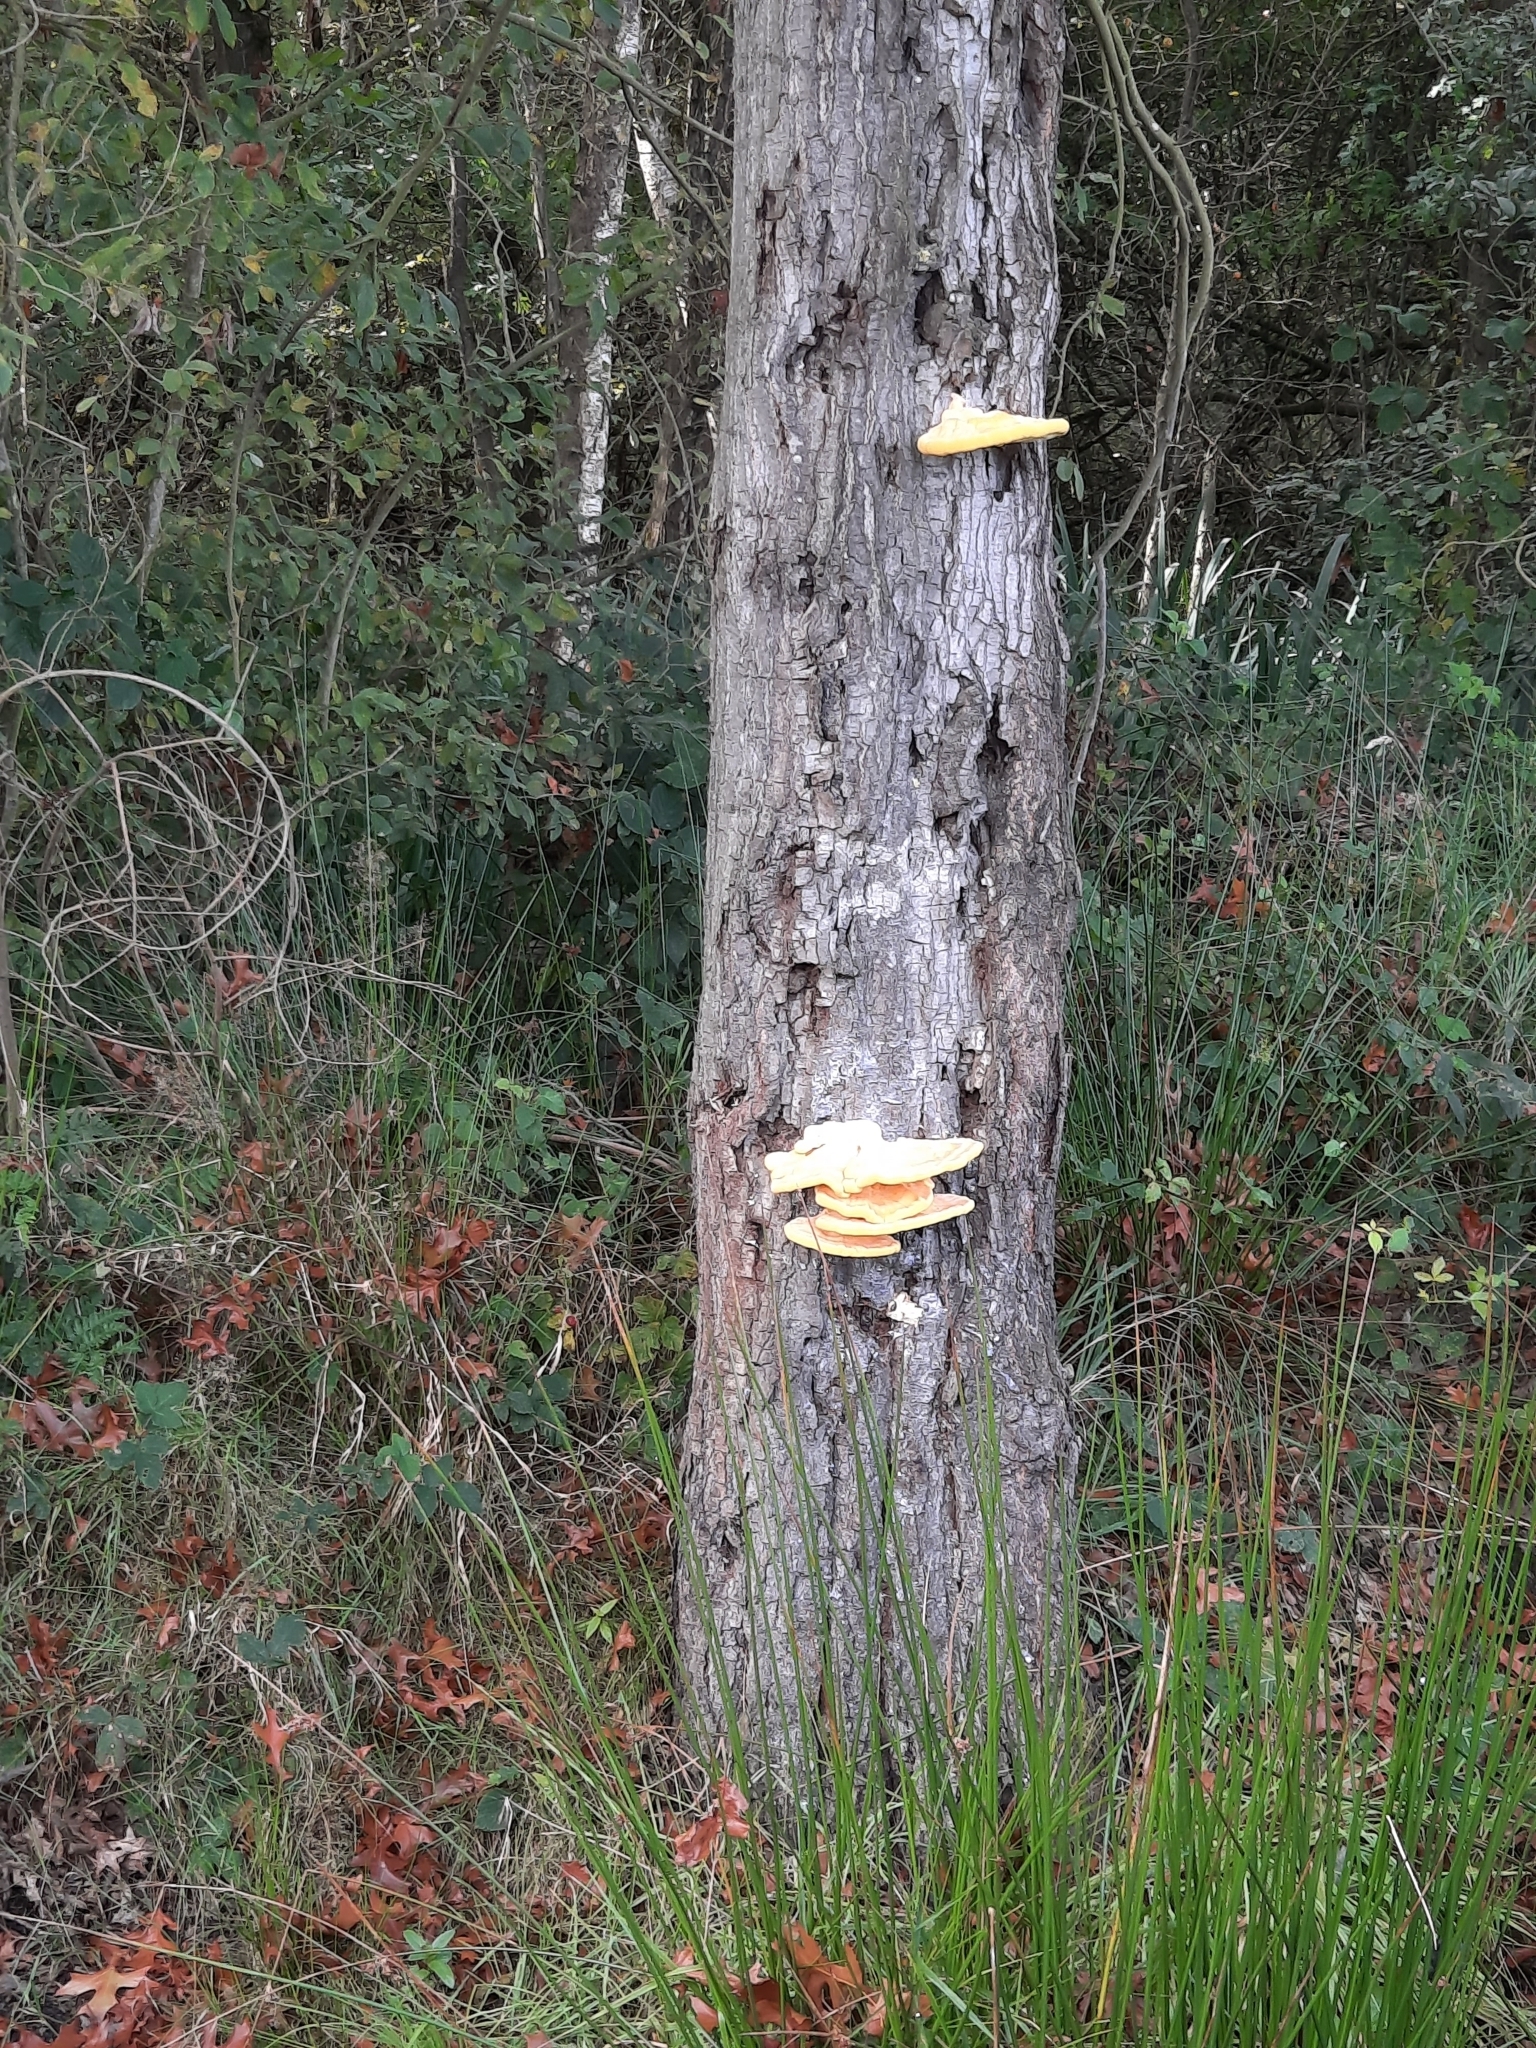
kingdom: Fungi
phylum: Basidiomycota
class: Agaricomycetes
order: Polyporales
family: Laetiporaceae
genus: Laetiporus
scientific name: Laetiporus sulphureus
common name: Chicken of the woods
